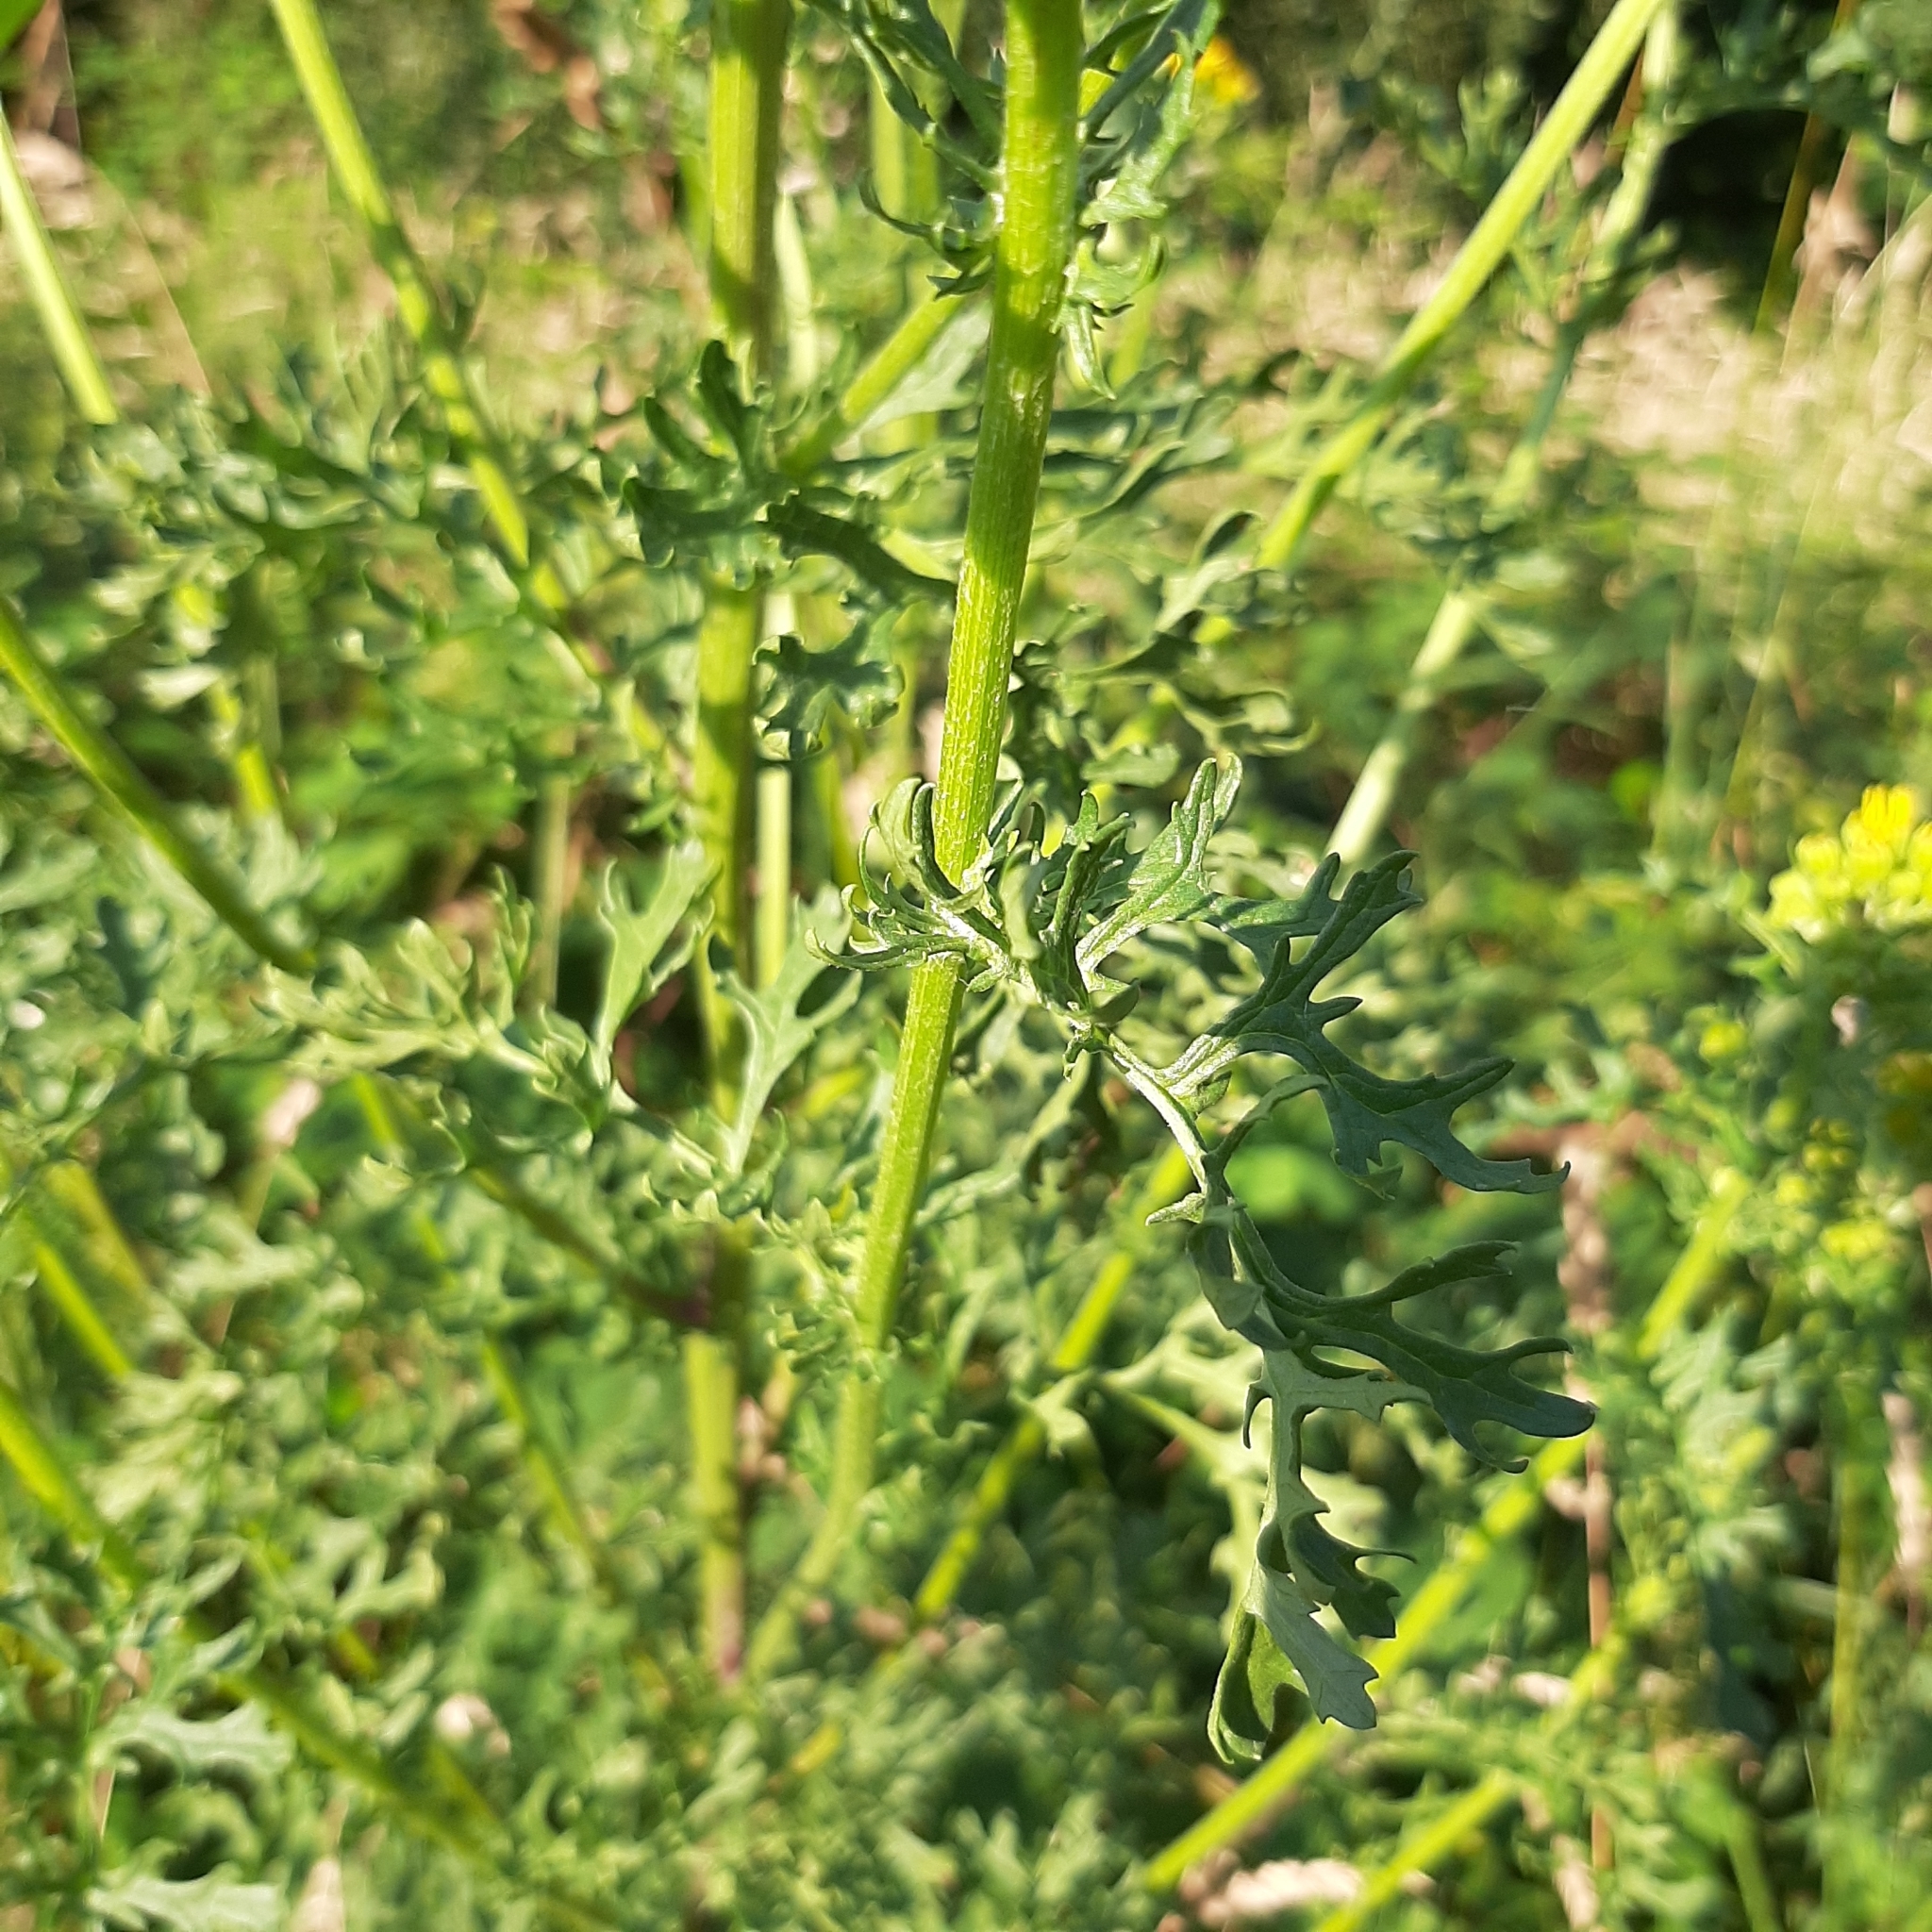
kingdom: Plantae
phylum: Tracheophyta
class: Magnoliopsida
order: Asterales
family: Asteraceae
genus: Jacobaea
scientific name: Jacobaea vulgaris
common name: Stinking willie
